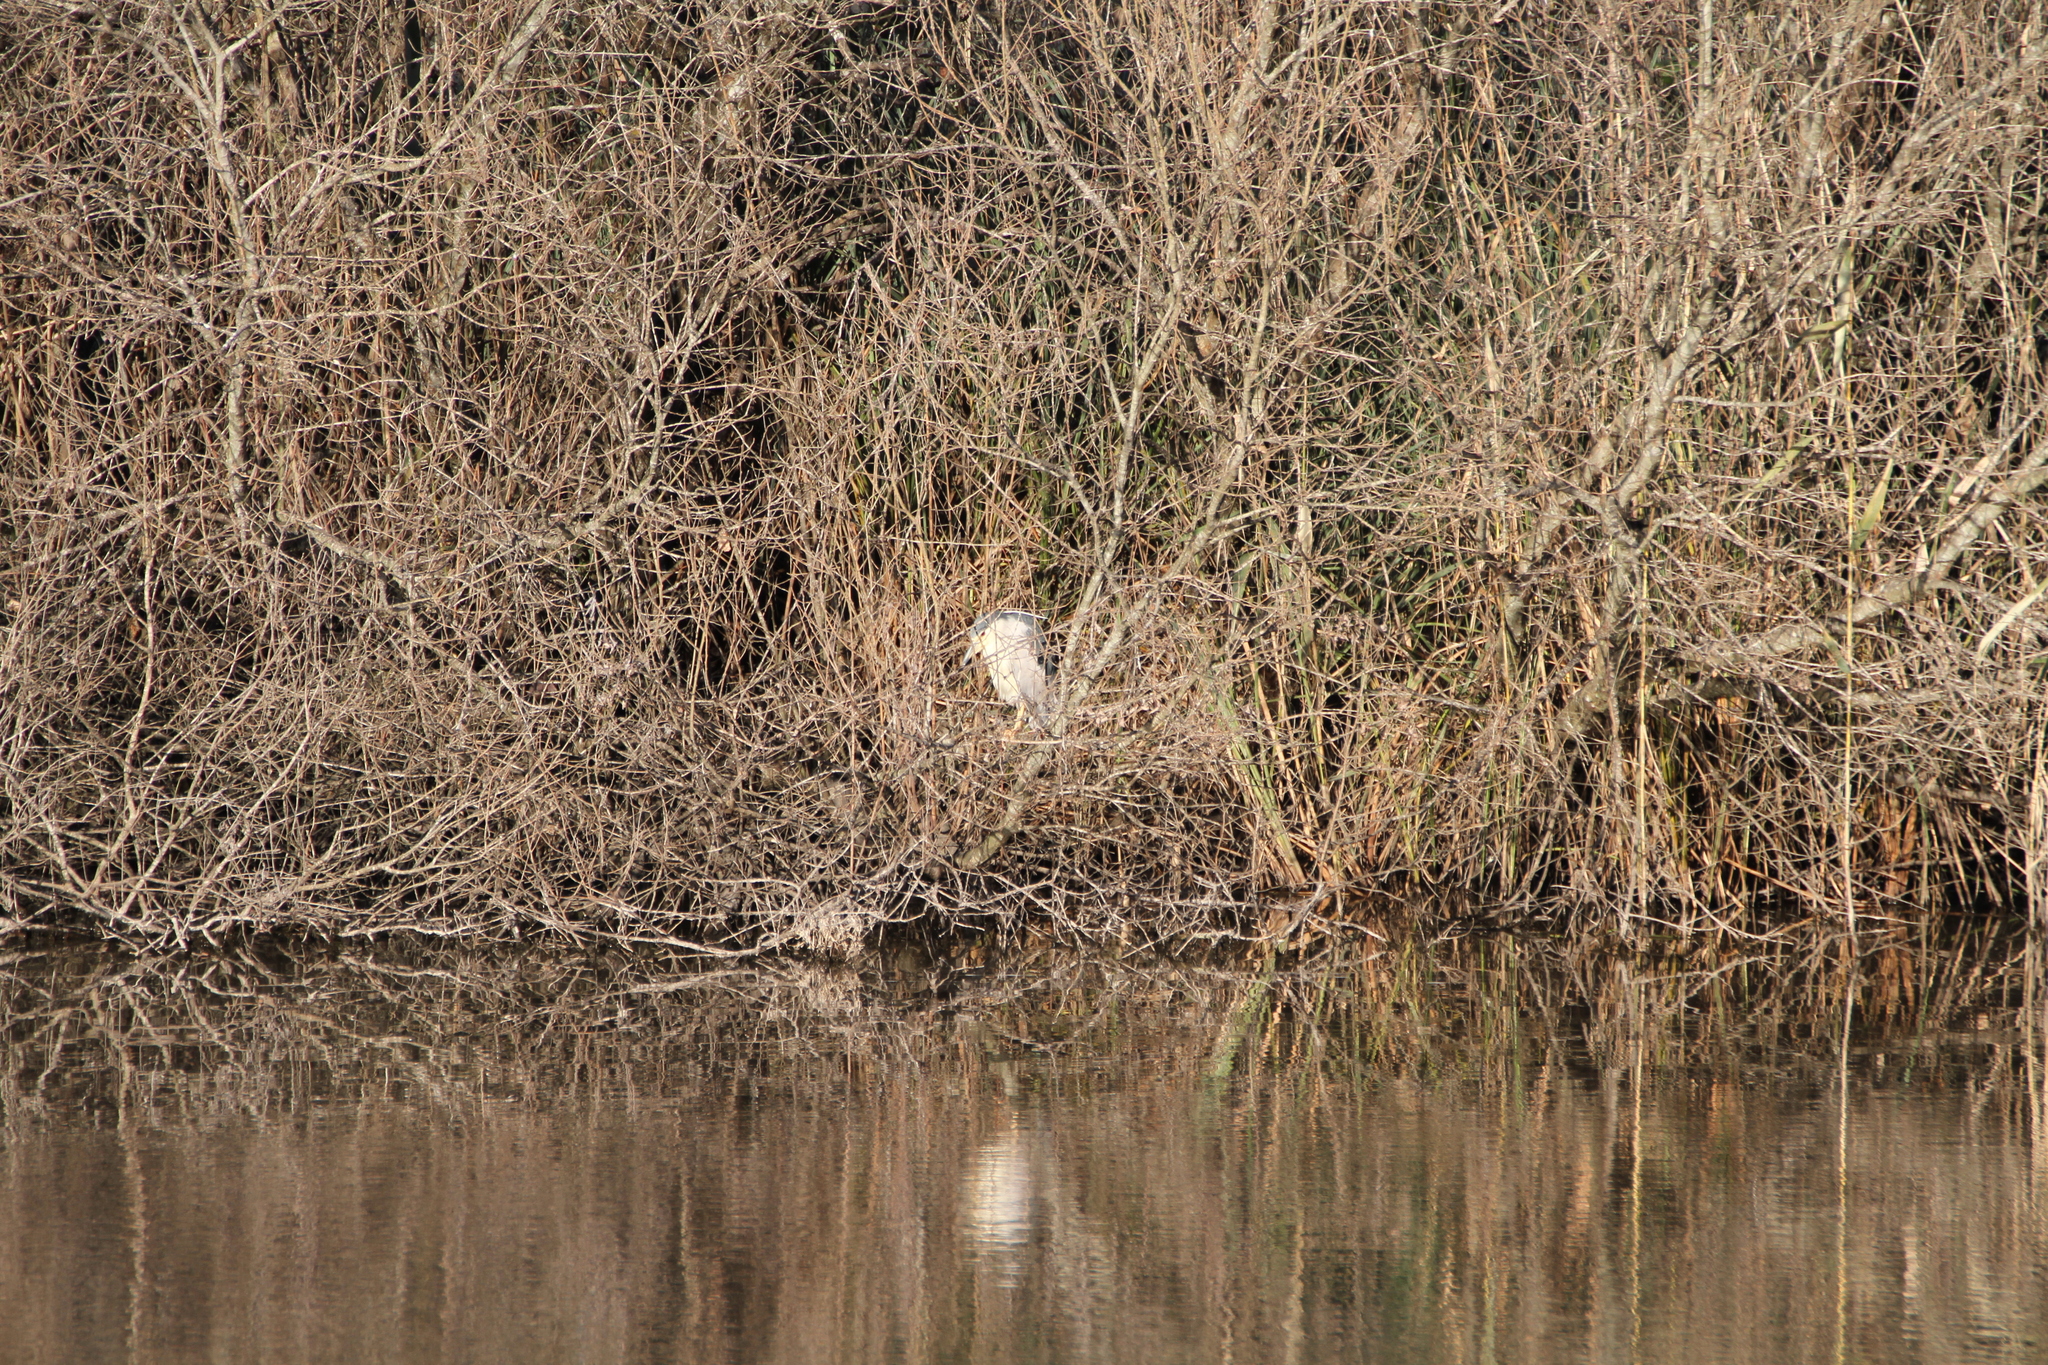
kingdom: Animalia
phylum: Chordata
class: Aves
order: Pelecaniformes
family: Ardeidae
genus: Nycticorax
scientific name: Nycticorax nycticorax
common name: Black-crowned night heron
